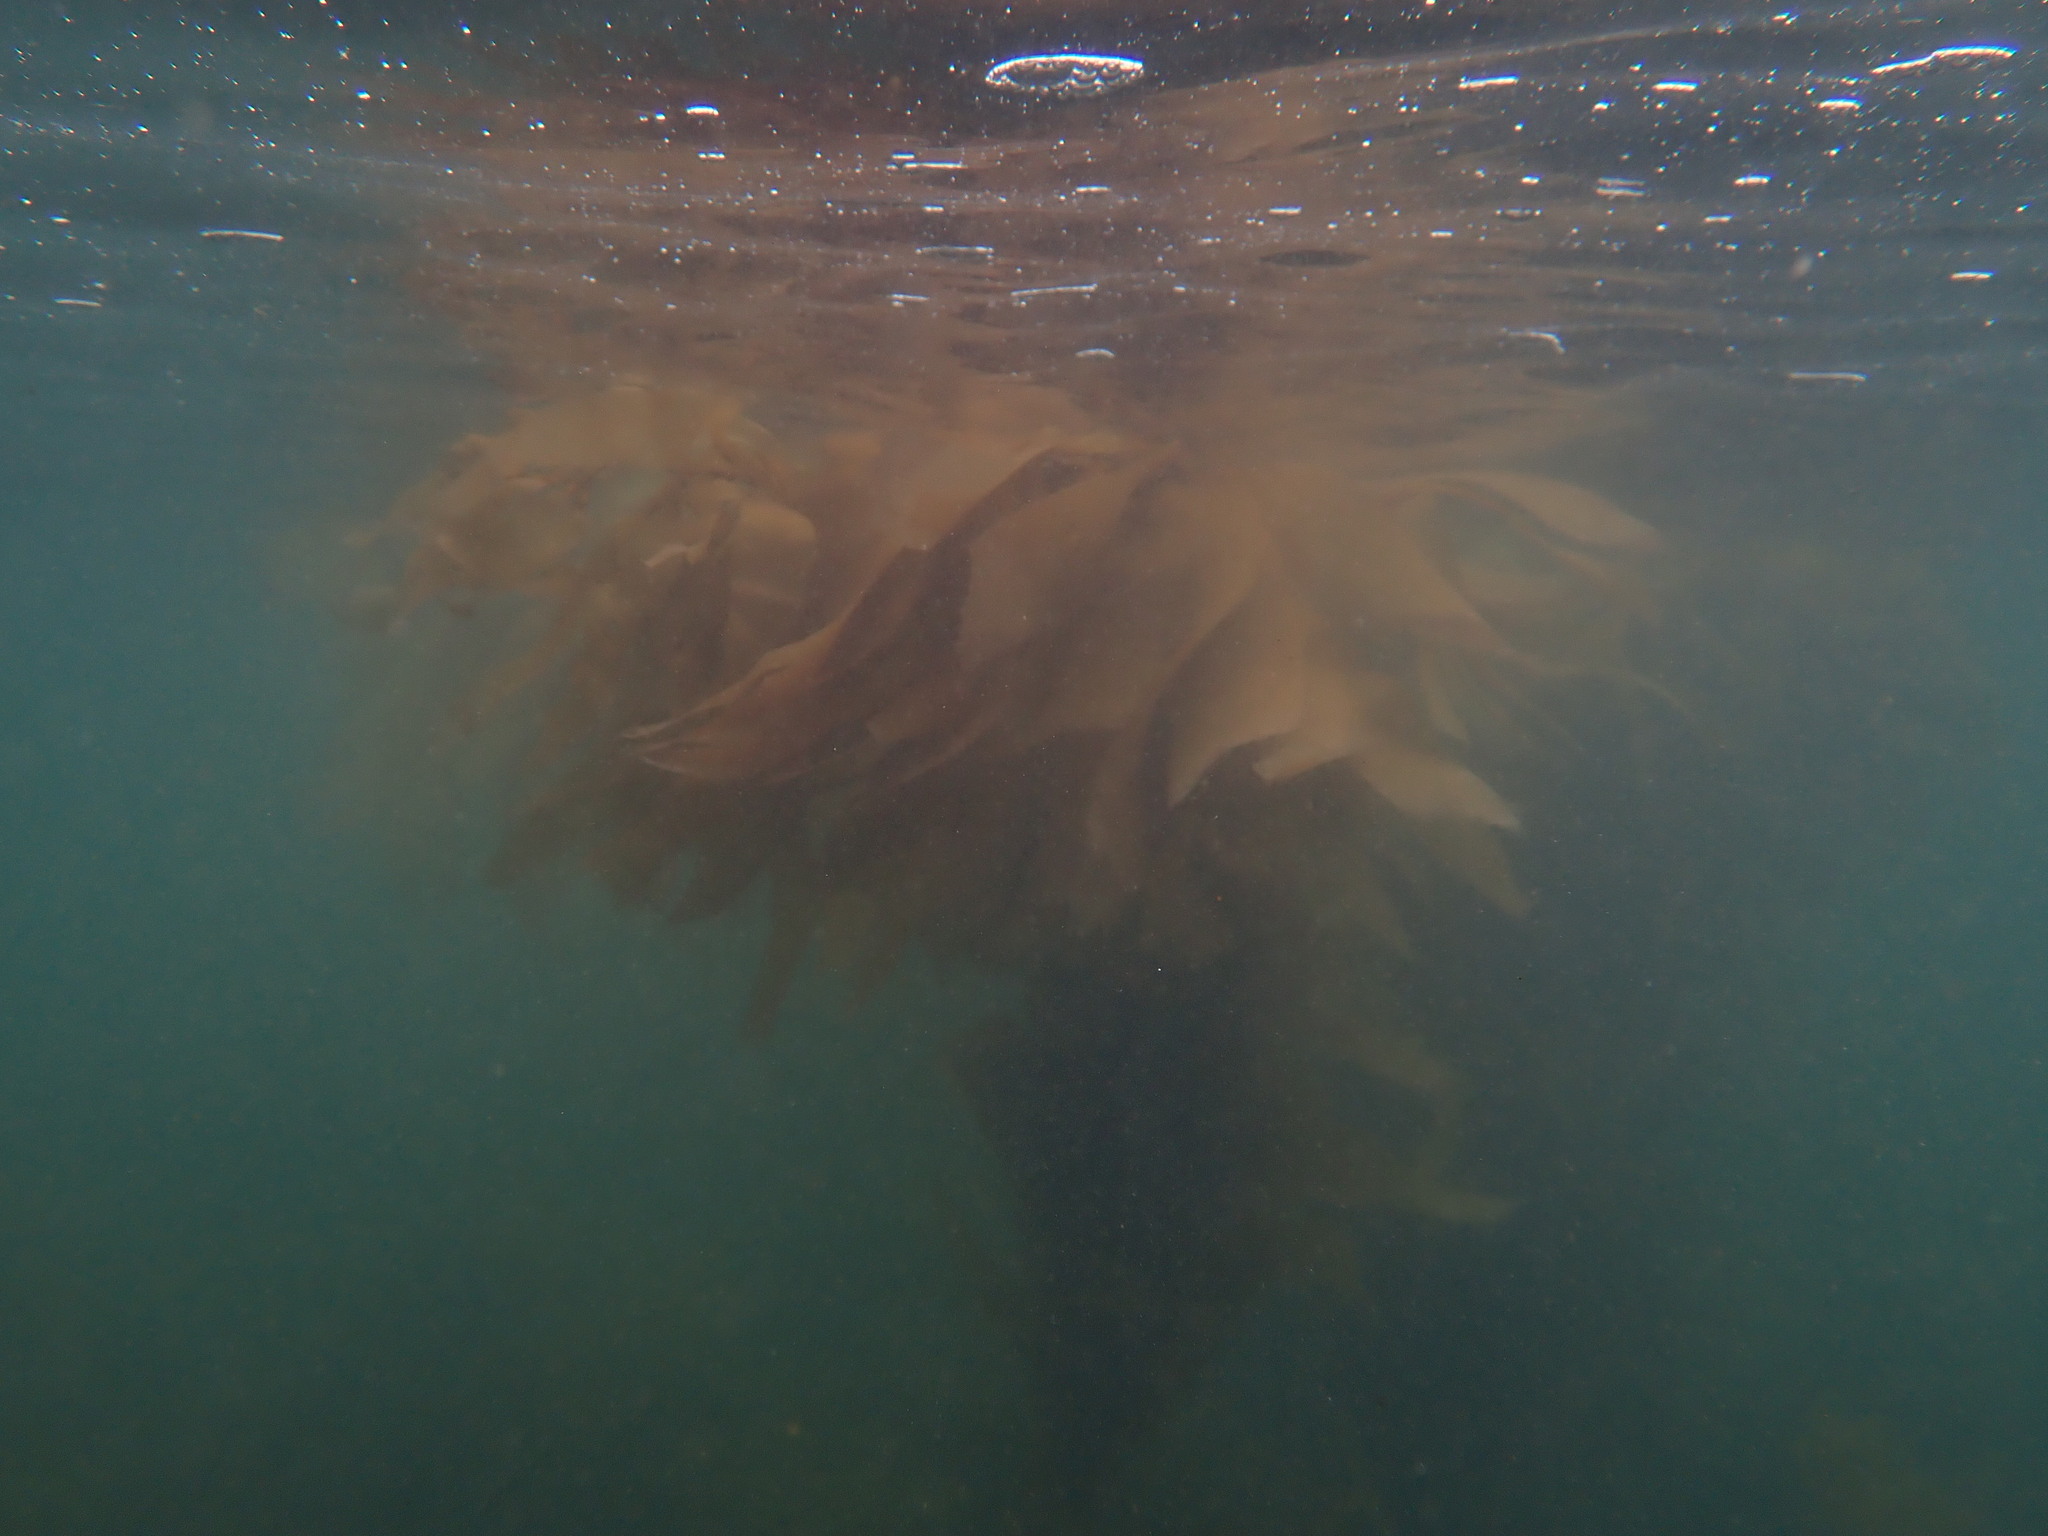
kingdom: Chromista
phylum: Ochrophyta
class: Phaeophyceae
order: Laminariales
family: Laminariaceae
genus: Macrocystis
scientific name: Macrocystis pyrifera
